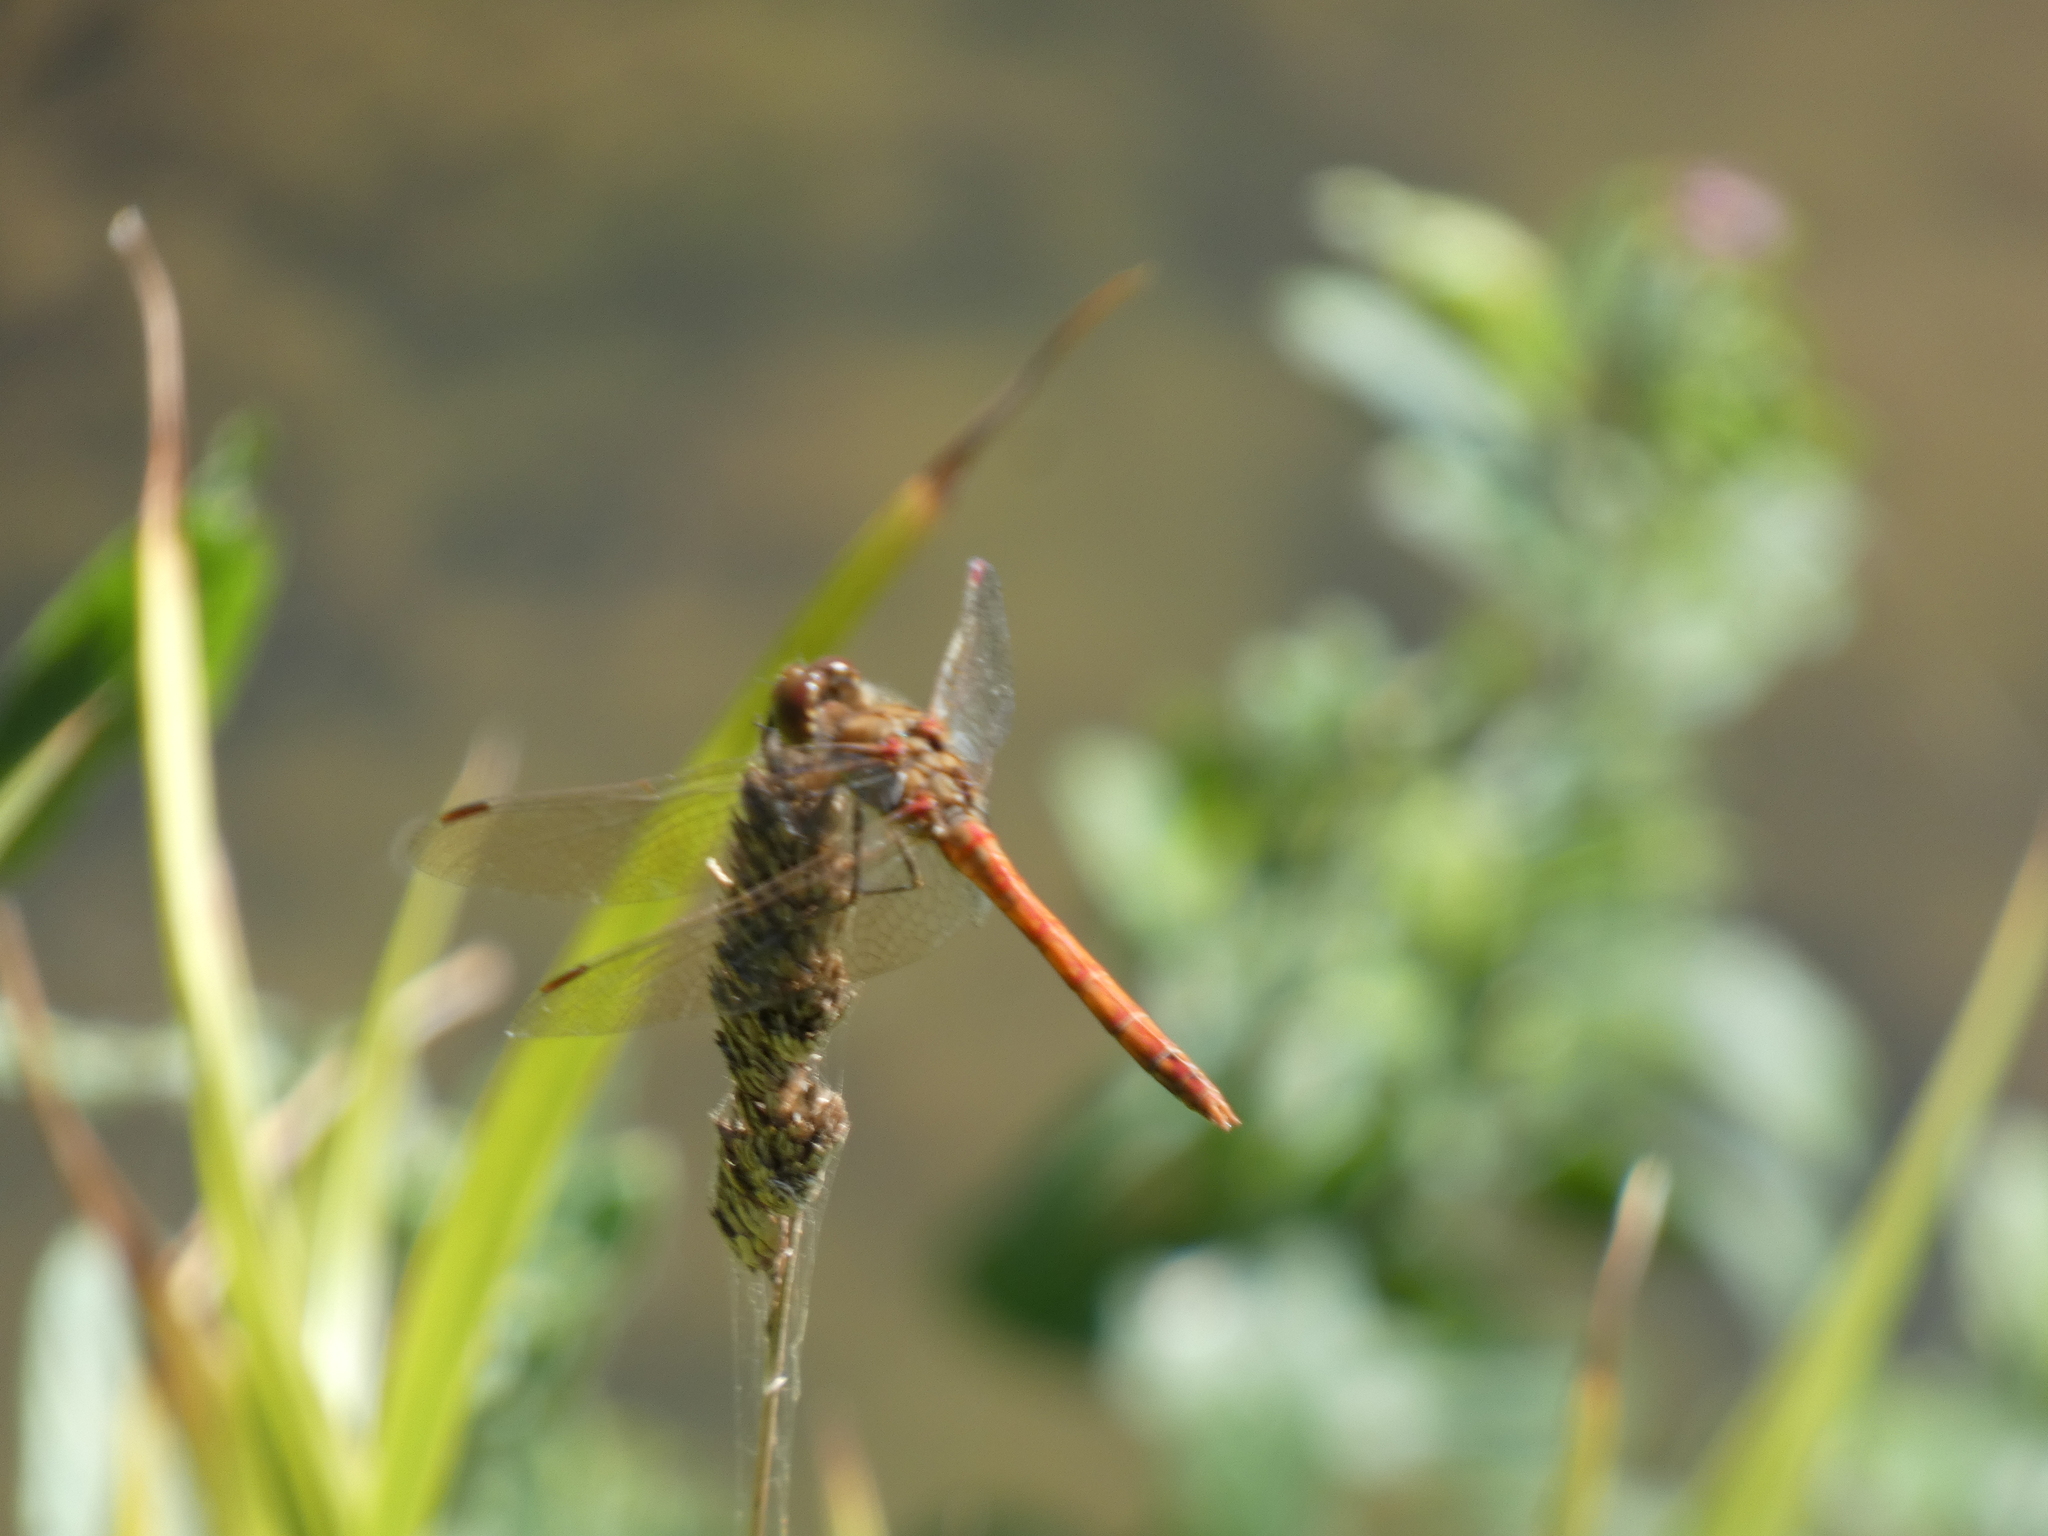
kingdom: Animalia
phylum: Arthropoda
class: Insecta
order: Odonata
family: Libellulidae
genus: Sympetrum
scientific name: Sympetrum striolatum
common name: Common darter
